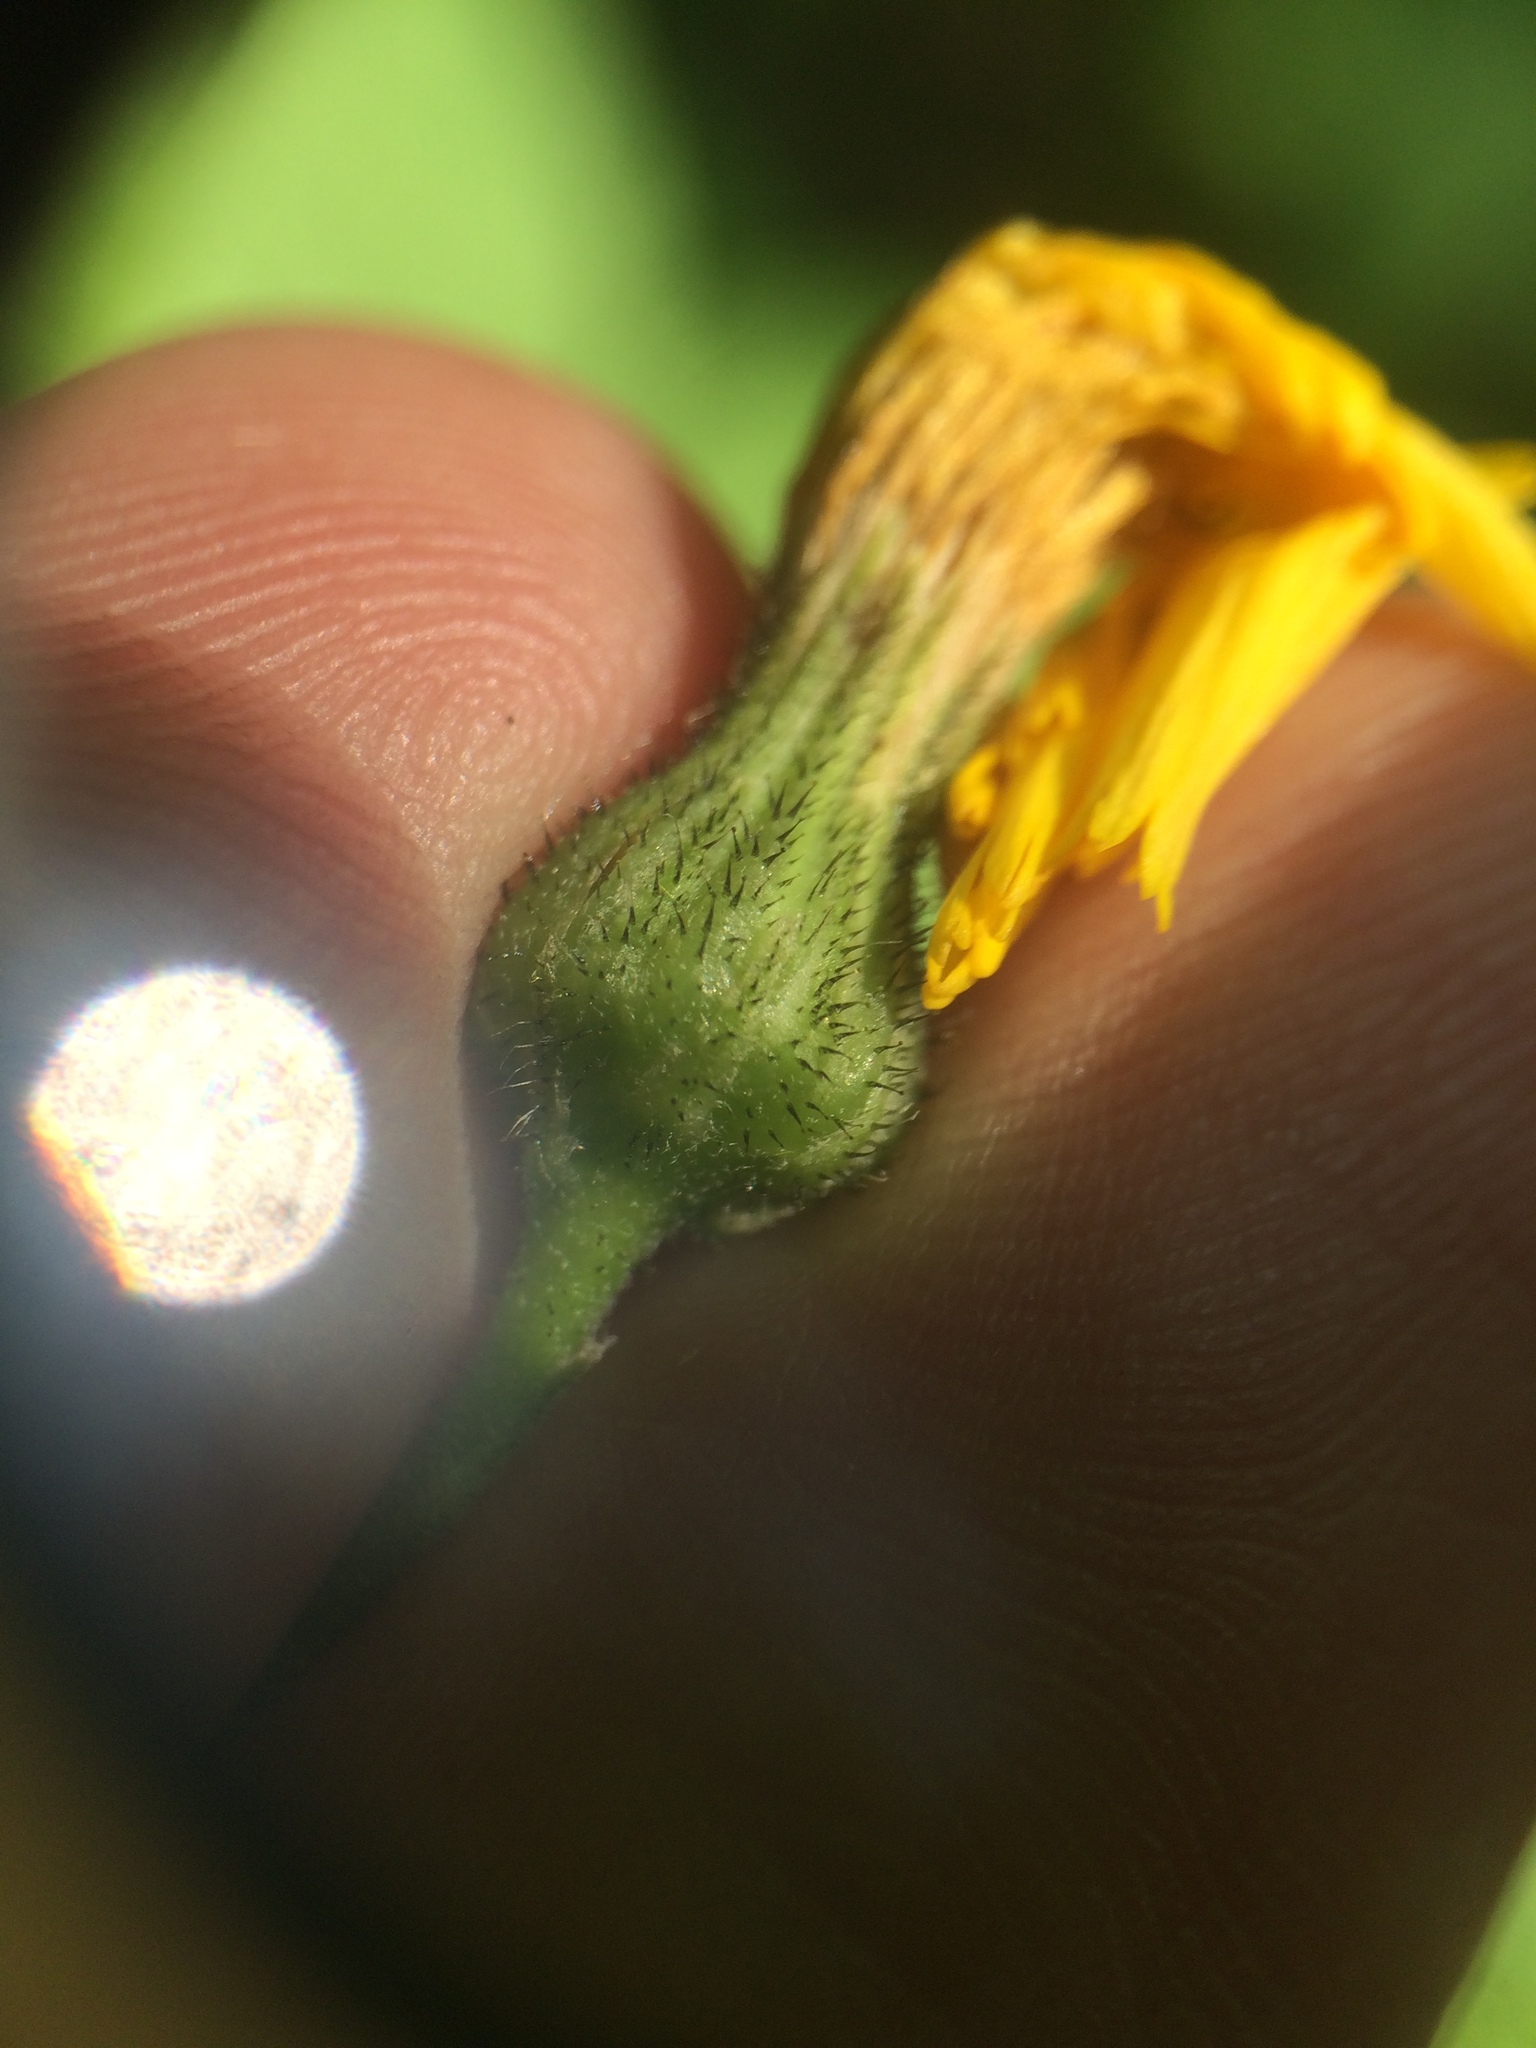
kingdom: Plantae
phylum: Tracheophyta
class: Magnoliopsida
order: Asterales
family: Asteraceae
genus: Hieracium
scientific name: Hieracium lachenalii
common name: Common hawkweed
